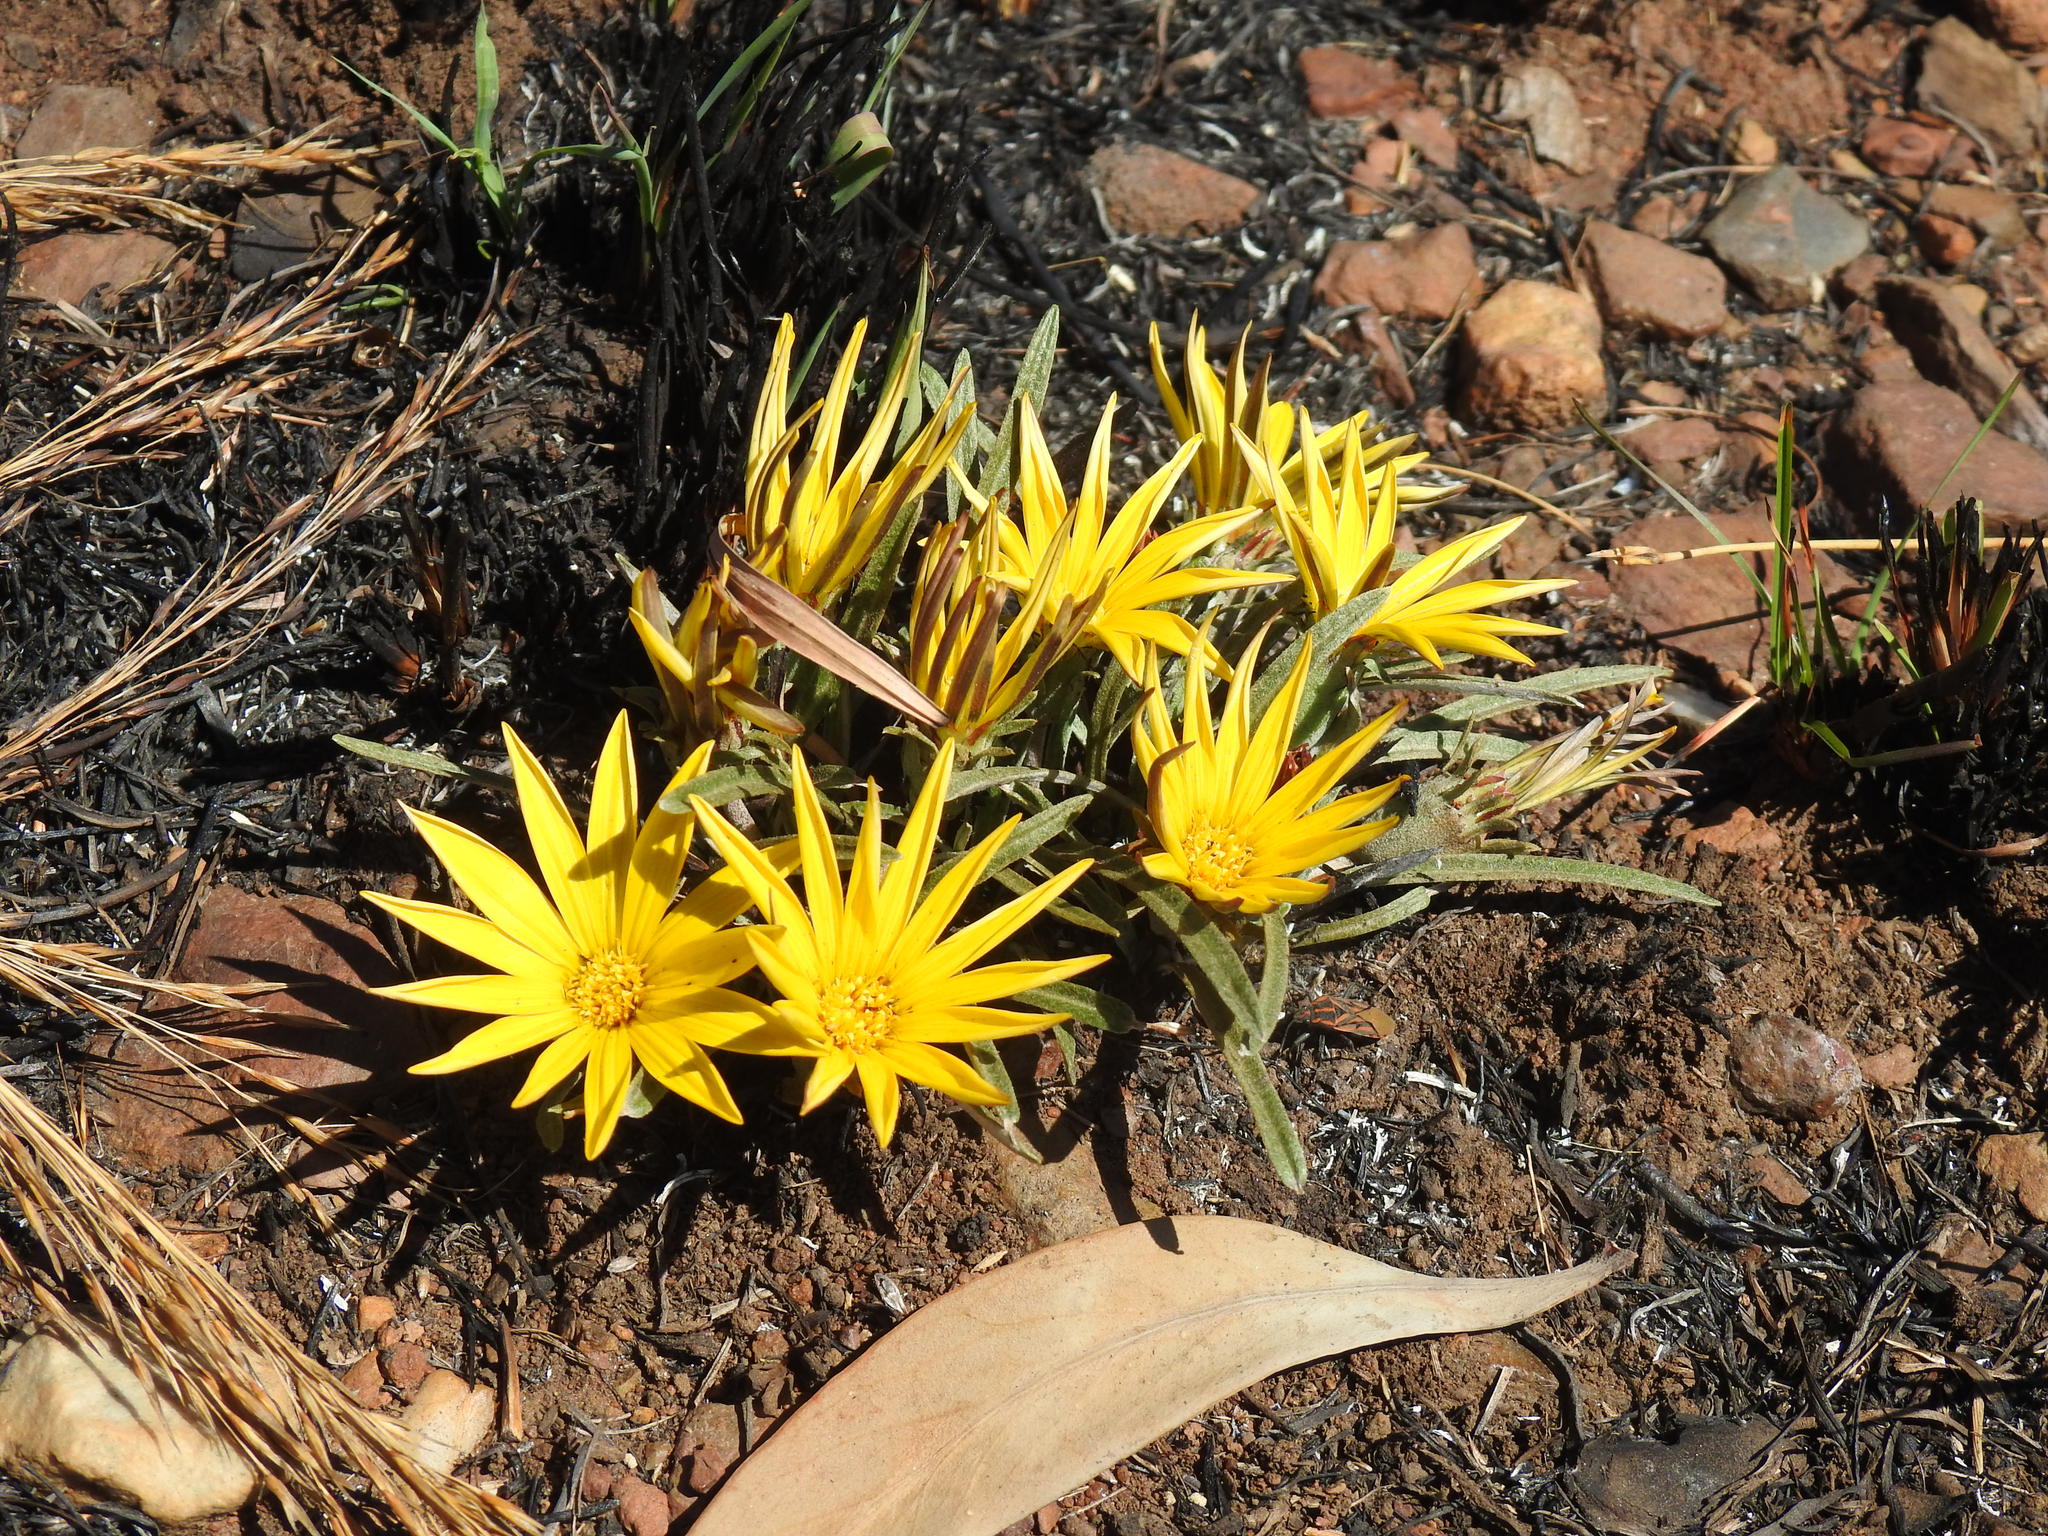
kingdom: Plantae
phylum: Tracheophyta
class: Magnoliopsida
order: Asterales
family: Asteraceae
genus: Gazania
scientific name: Gazania krebsiana
